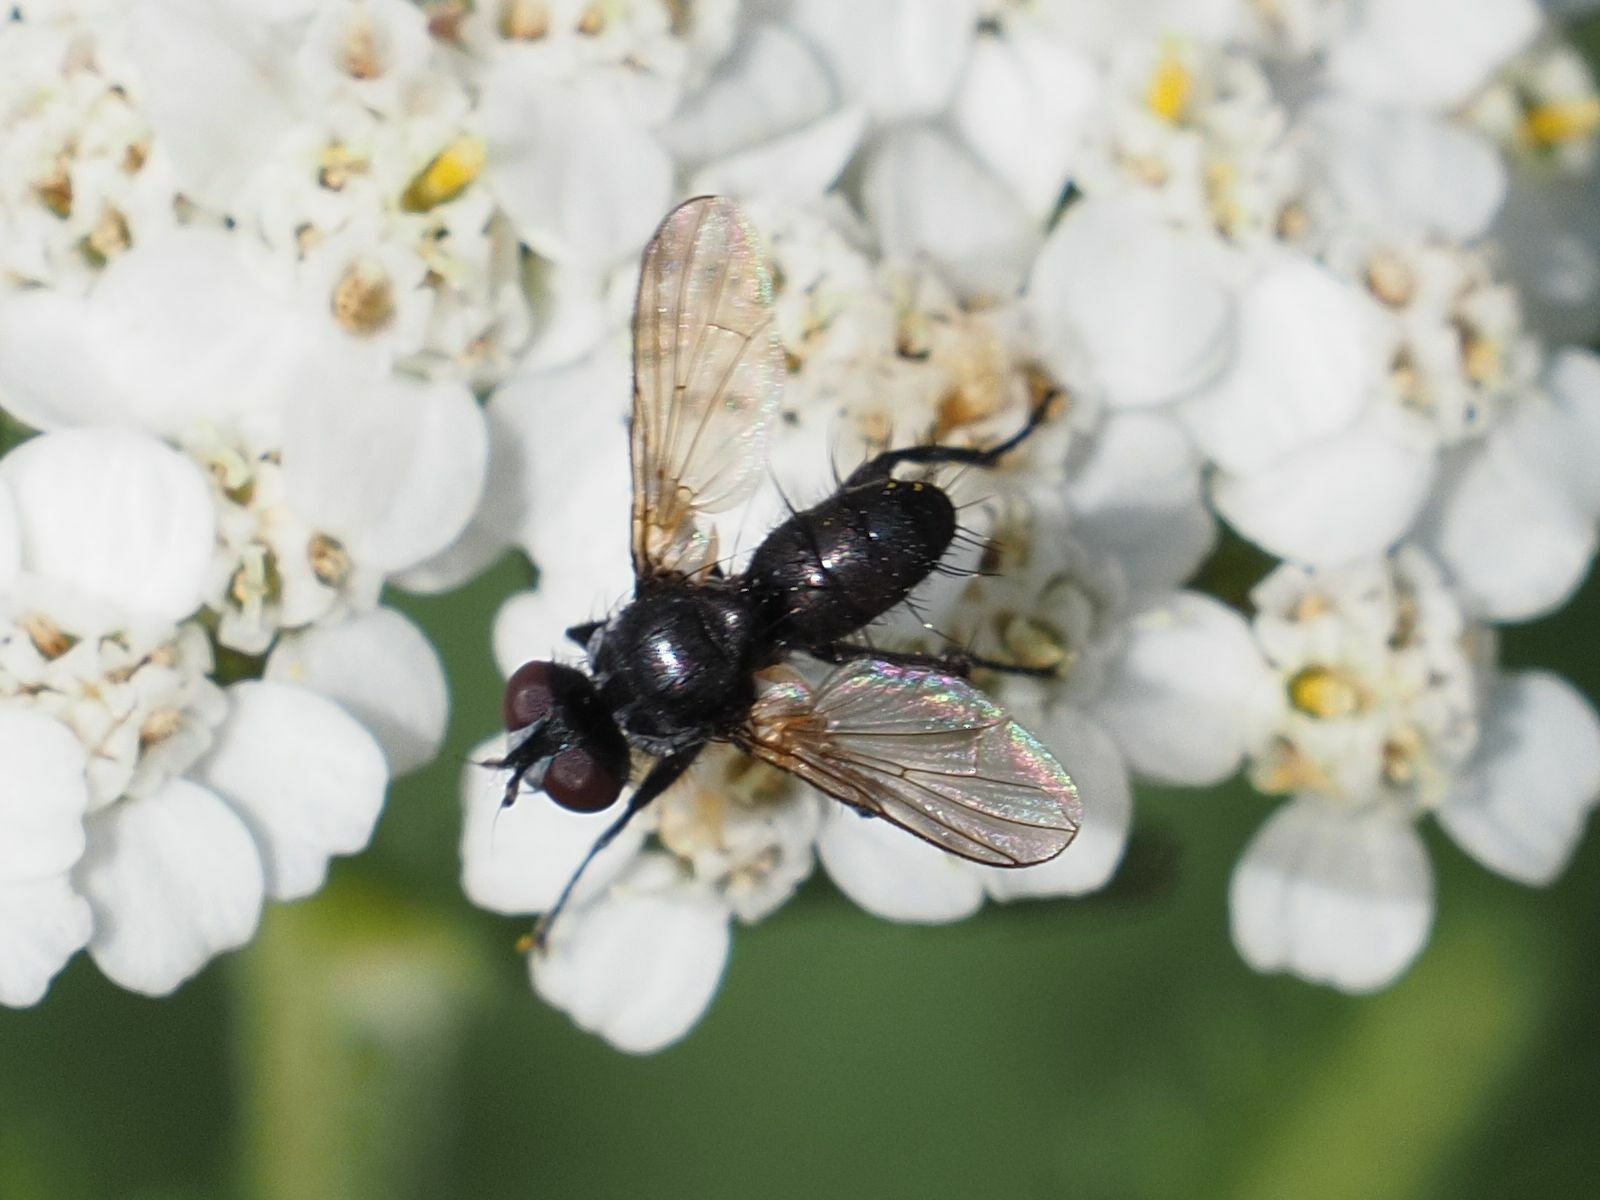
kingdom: Animalia
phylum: Arthropoda
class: Insecta
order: Diptera
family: Tachinidae
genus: Phania
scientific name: Phania funesta
